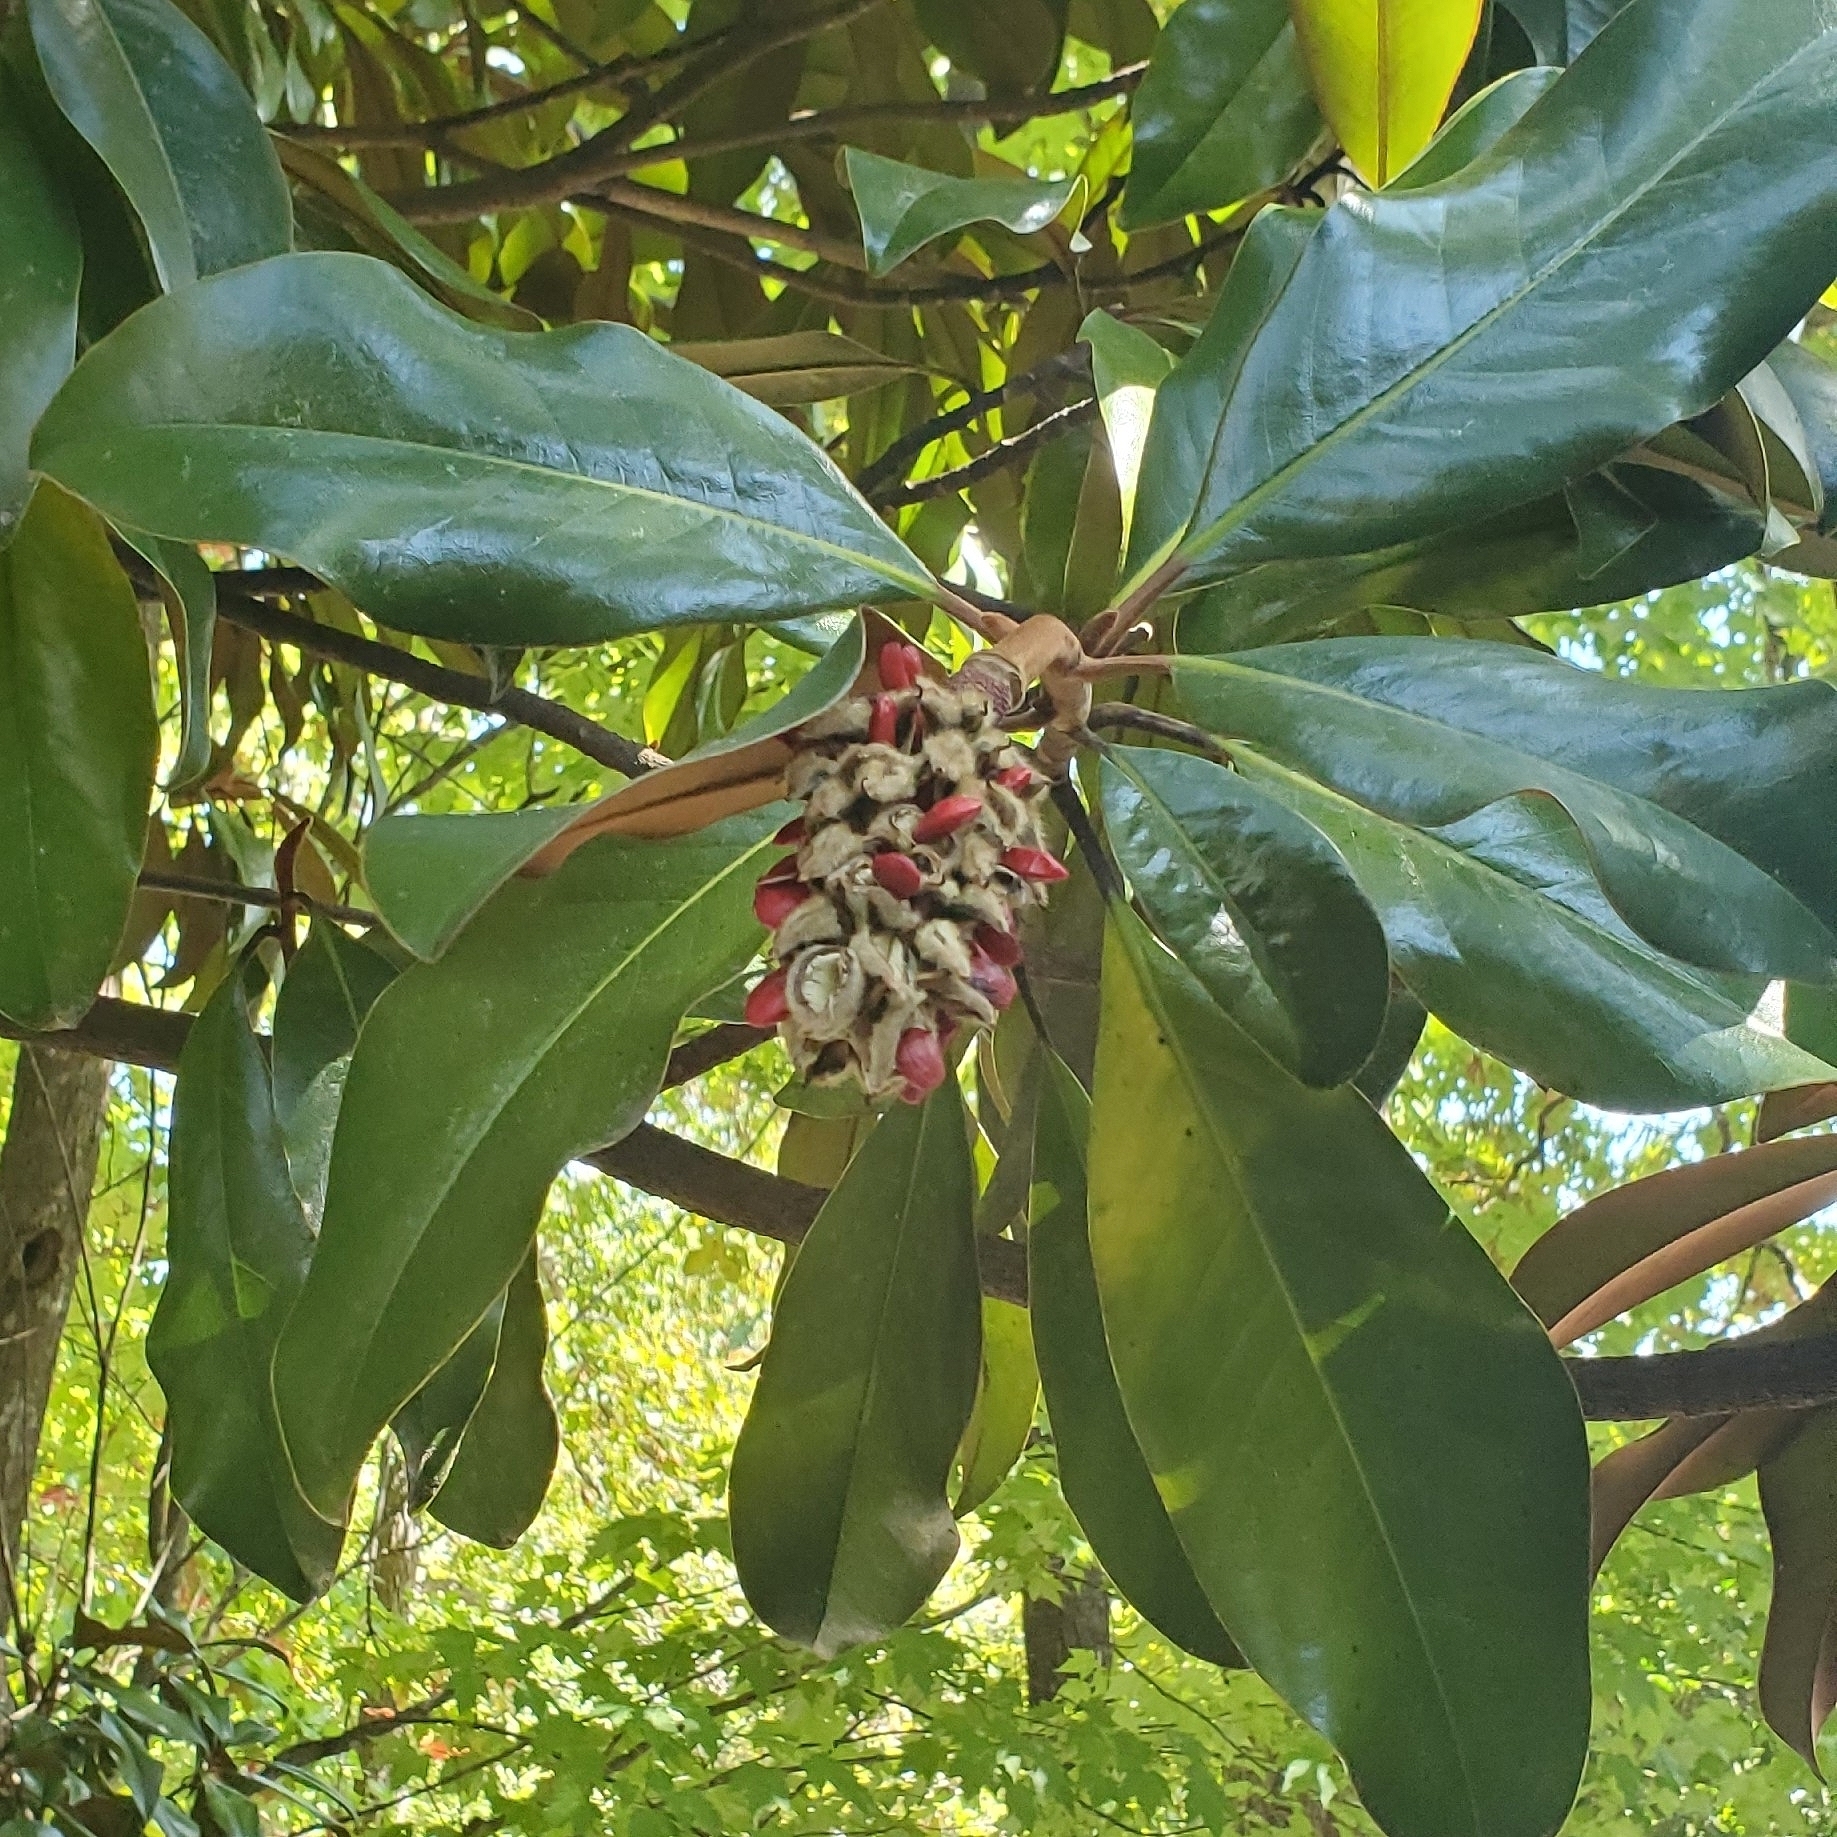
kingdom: Plantae
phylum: Tracheophyta
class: Magnoliopsida
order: Magnoliales
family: Magnoliaceae
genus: Magnolia
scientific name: Magnolia grandiflora
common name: Southern magnolia
